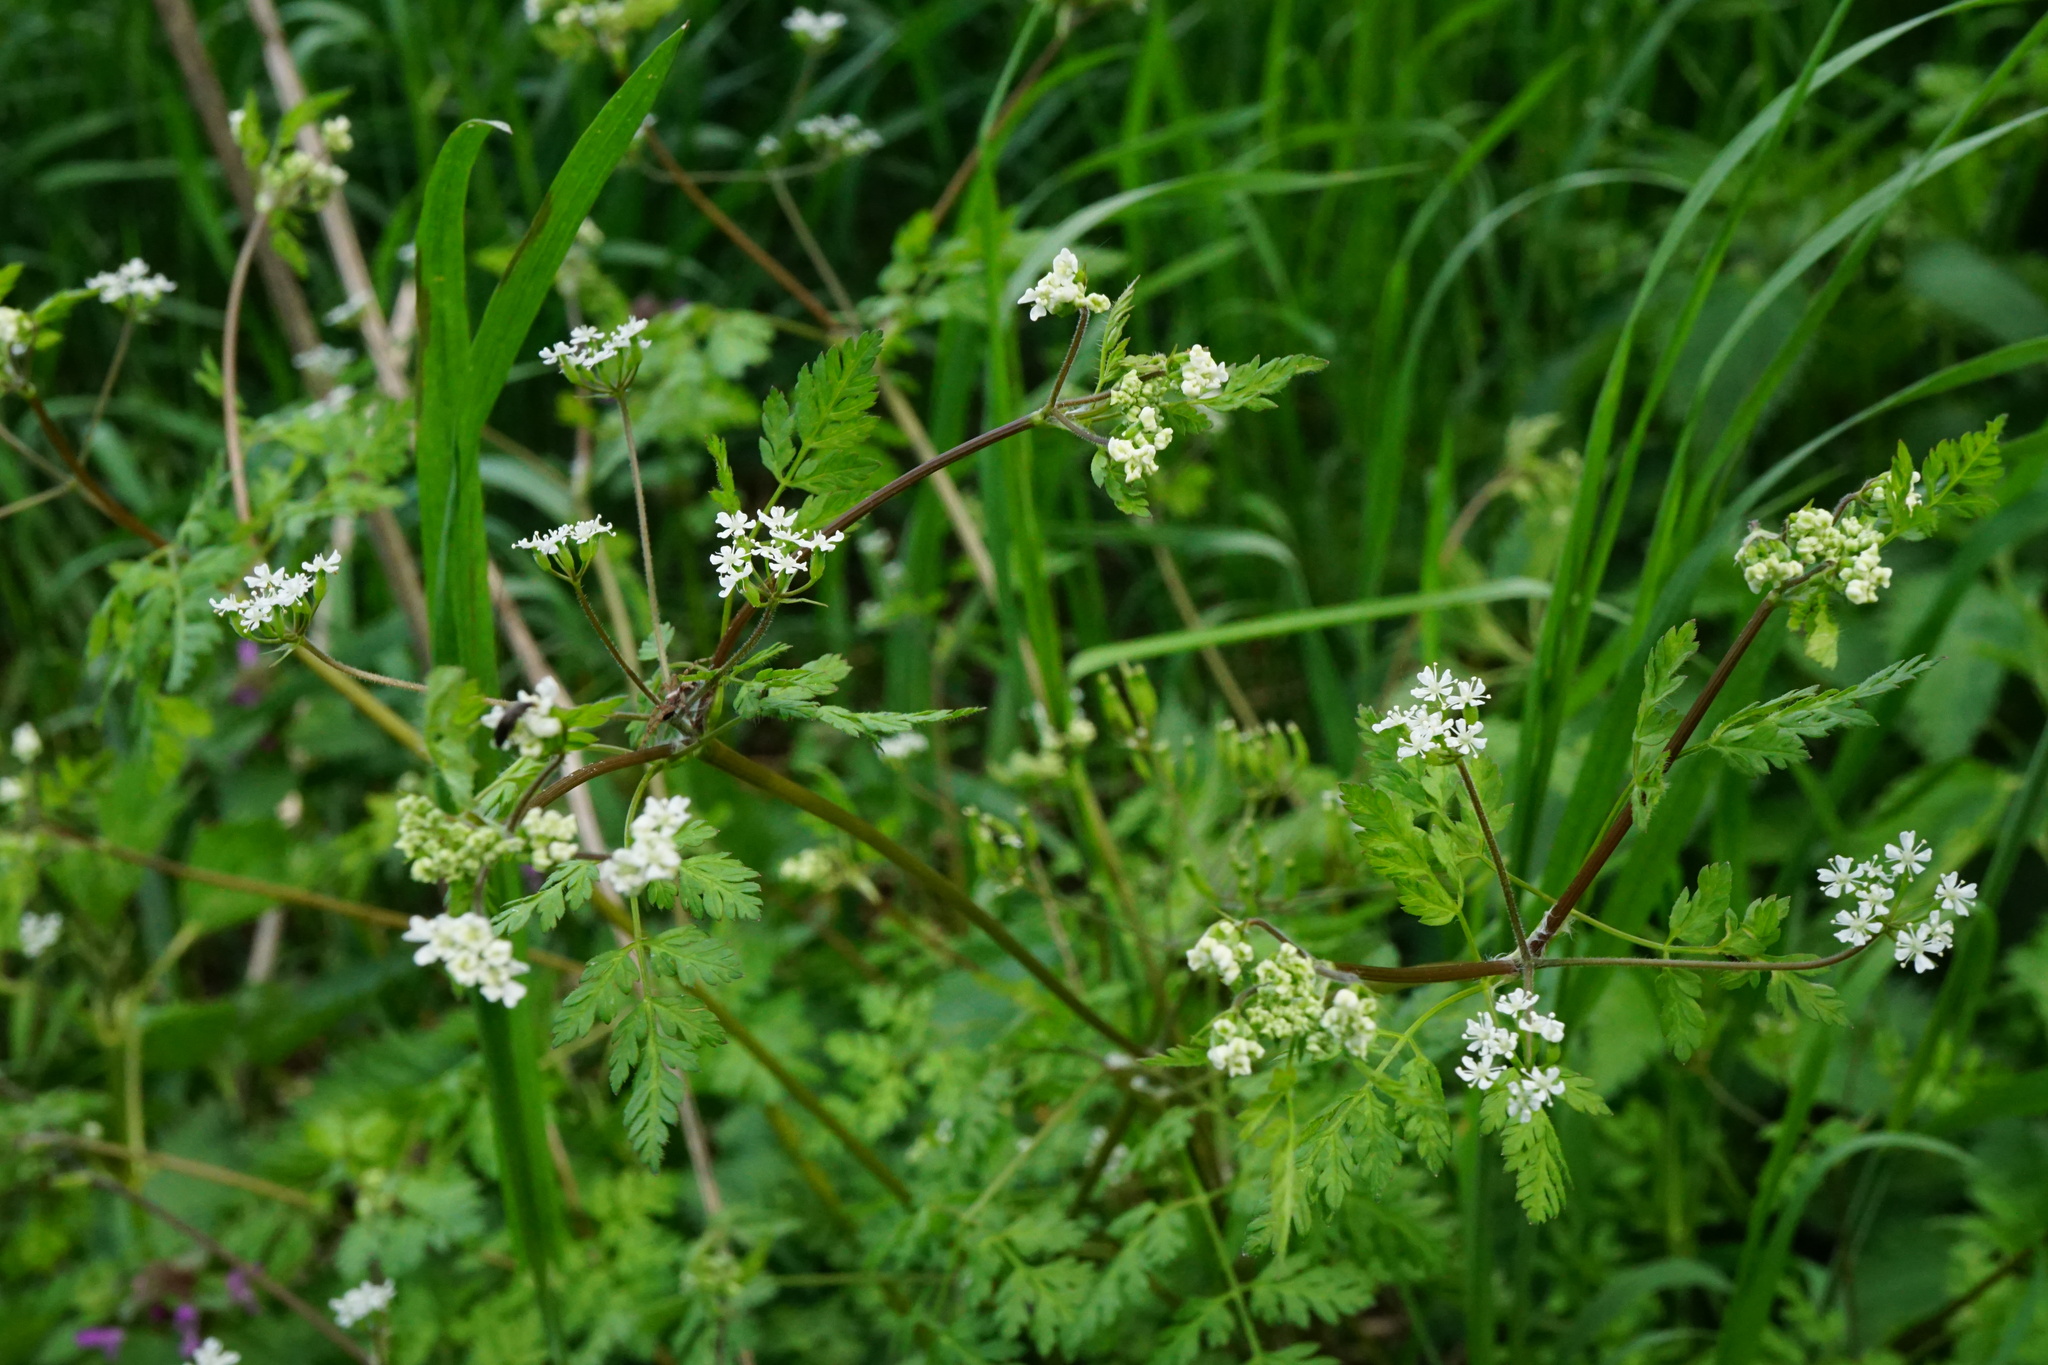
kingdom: Plantae
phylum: Tracheophyta
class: Magnoliopsida
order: Apiales
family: Apiaceae
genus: Anthriscus
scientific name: Anthriscus cerefolium
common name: Garden chervil
